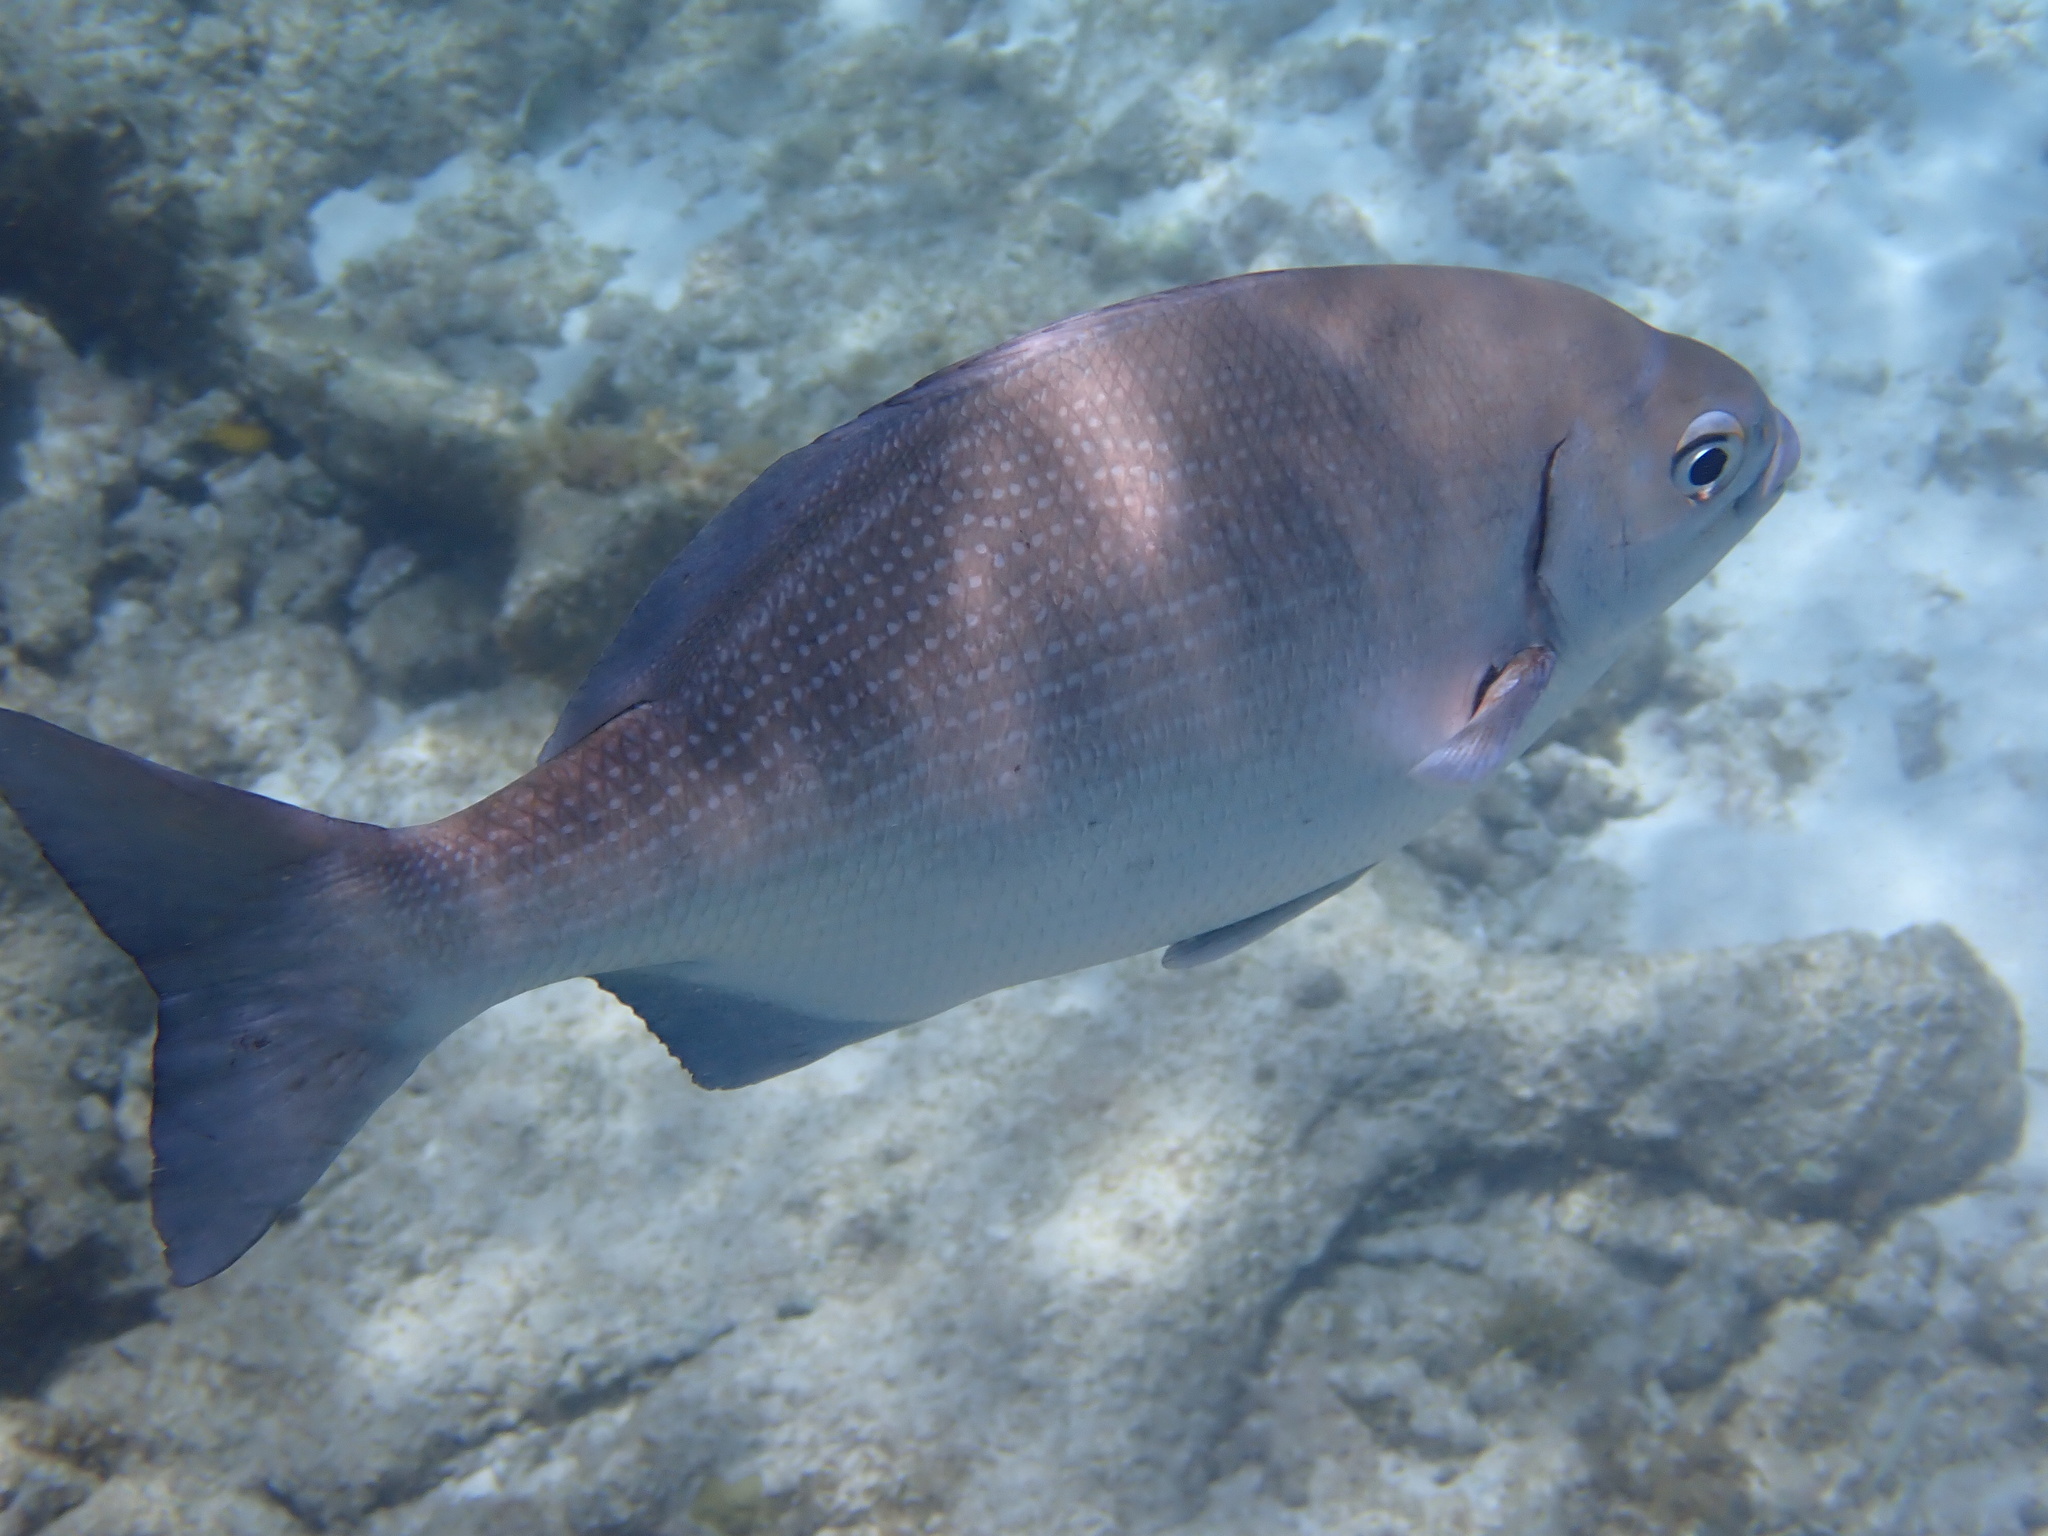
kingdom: Animalia
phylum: Chordata
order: Perciformes
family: Kyphosidae
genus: Kyphosus
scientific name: Kyphosus sectatrix
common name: Bermuda chub
